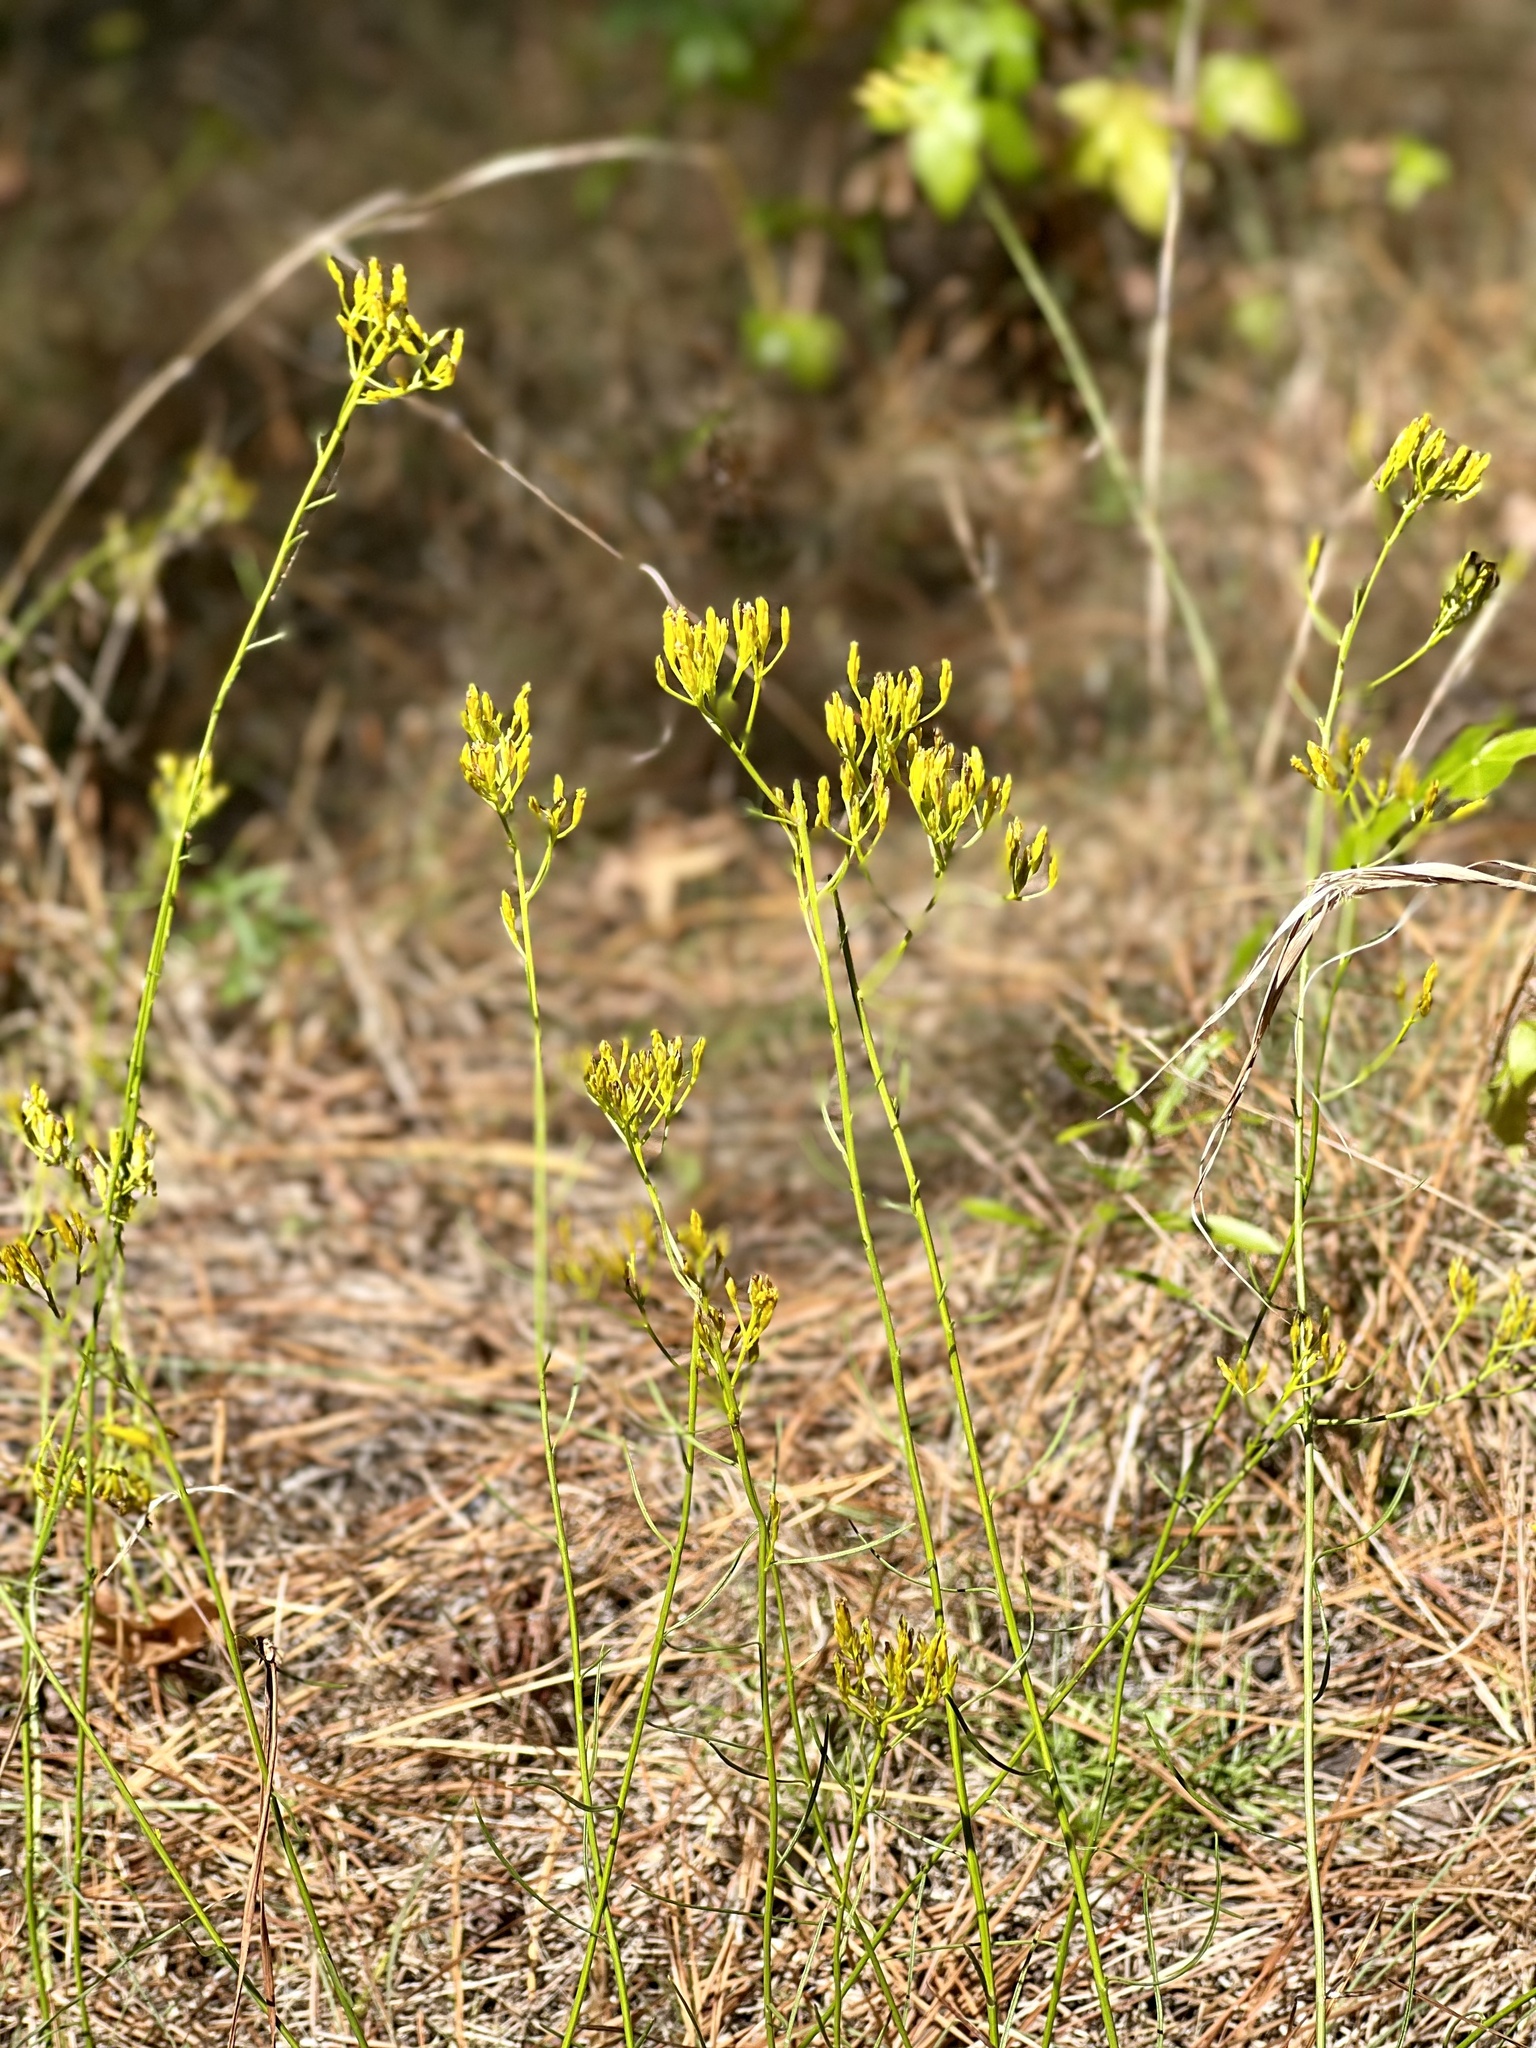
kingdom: Plantae
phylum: Tracheophyta
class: Magnoliopsida
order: Asterales
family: Asteraceae
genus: Bigelowia
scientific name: Bigelowia nuttallii
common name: Nuttall's rayless-goldenrod
